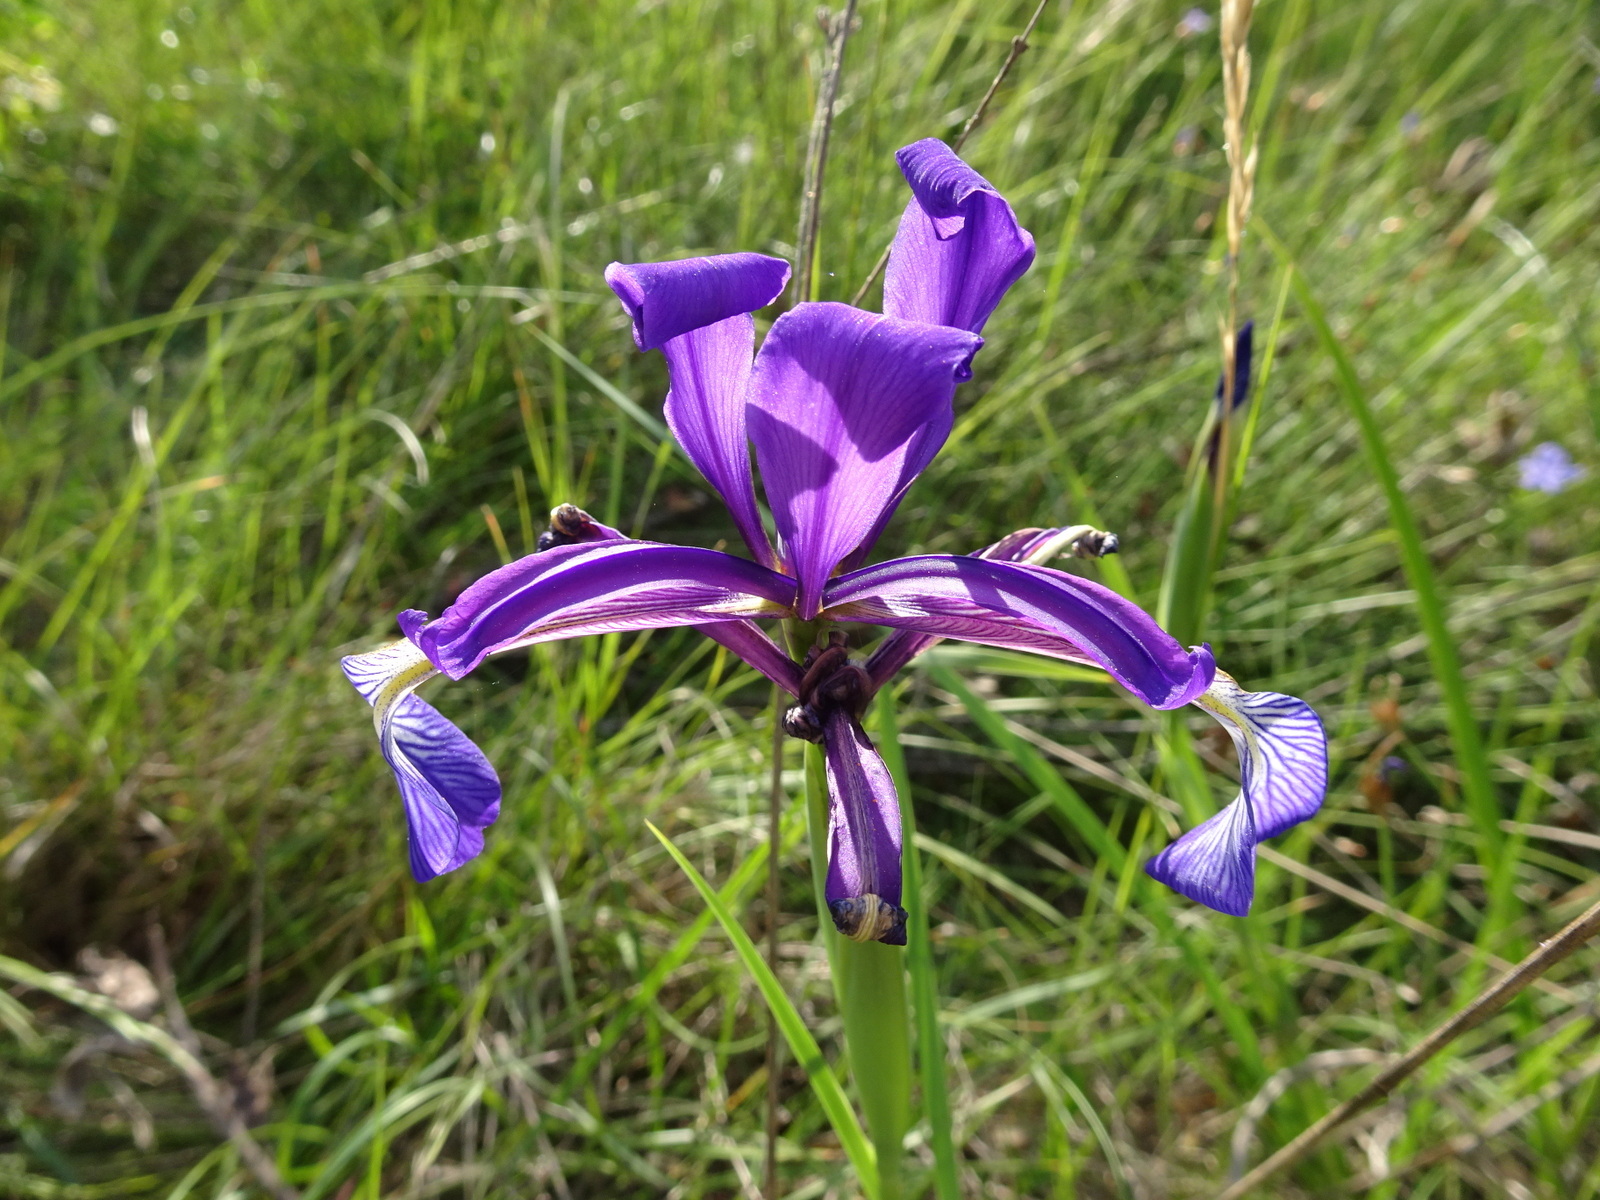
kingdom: Plantae
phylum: Tracheophyta
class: Liliopsida
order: Asparagales
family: Iridaceae
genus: Iris
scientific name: Iris reichenbachiana
